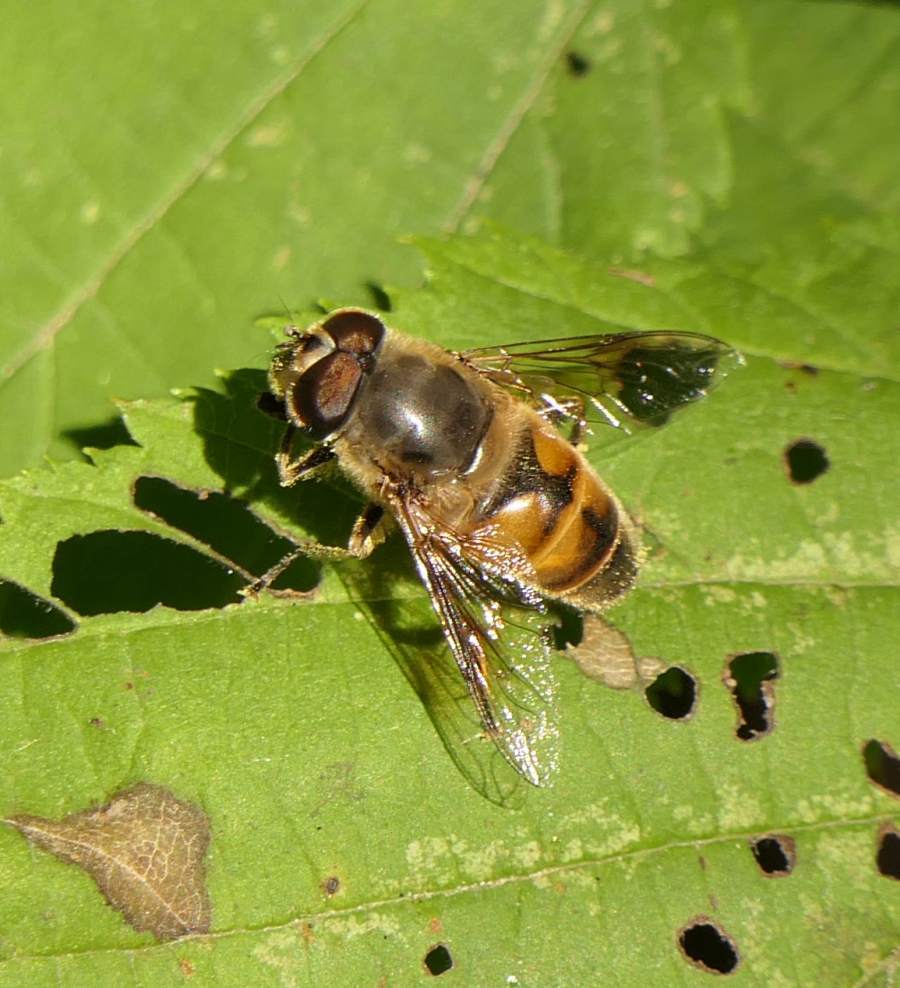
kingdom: Animalia
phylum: Arthropoda
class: Insecta
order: Diptera
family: Syrphidae
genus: Eristalis
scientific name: Eristalis tenax
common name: Drone fly
